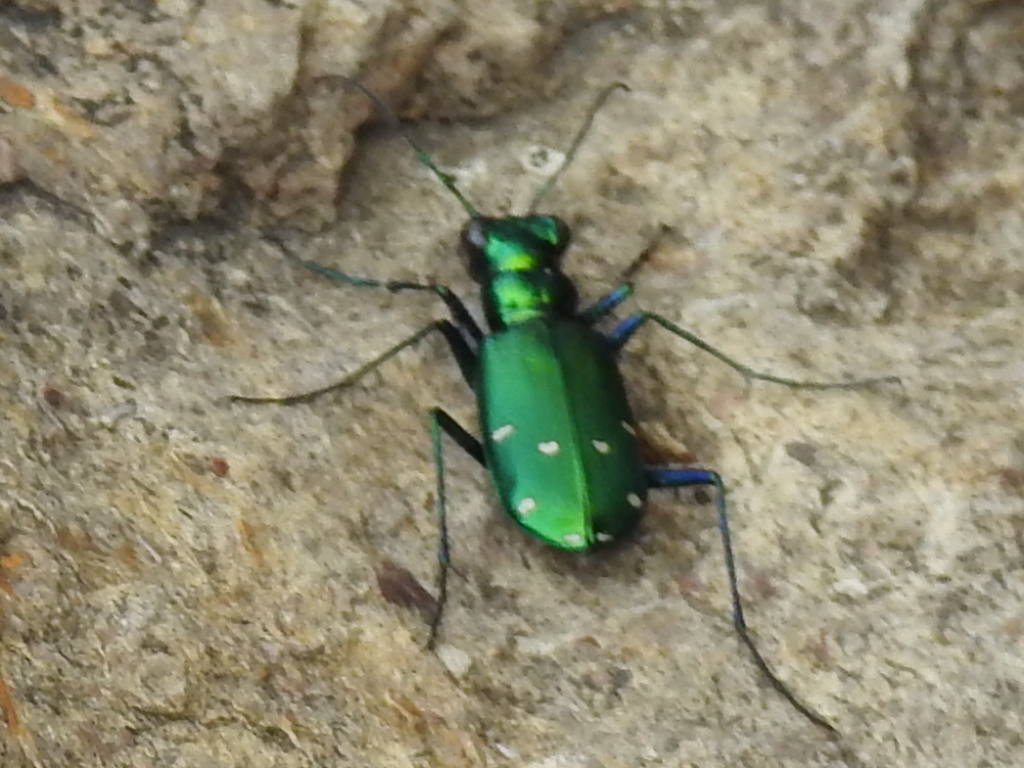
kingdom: Animalia
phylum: Arthropoda
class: Insecta
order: Coleoptera
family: Carabidae
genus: Cicindela
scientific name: Cicindela sexguttata
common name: Six-spotted tiger beetle
